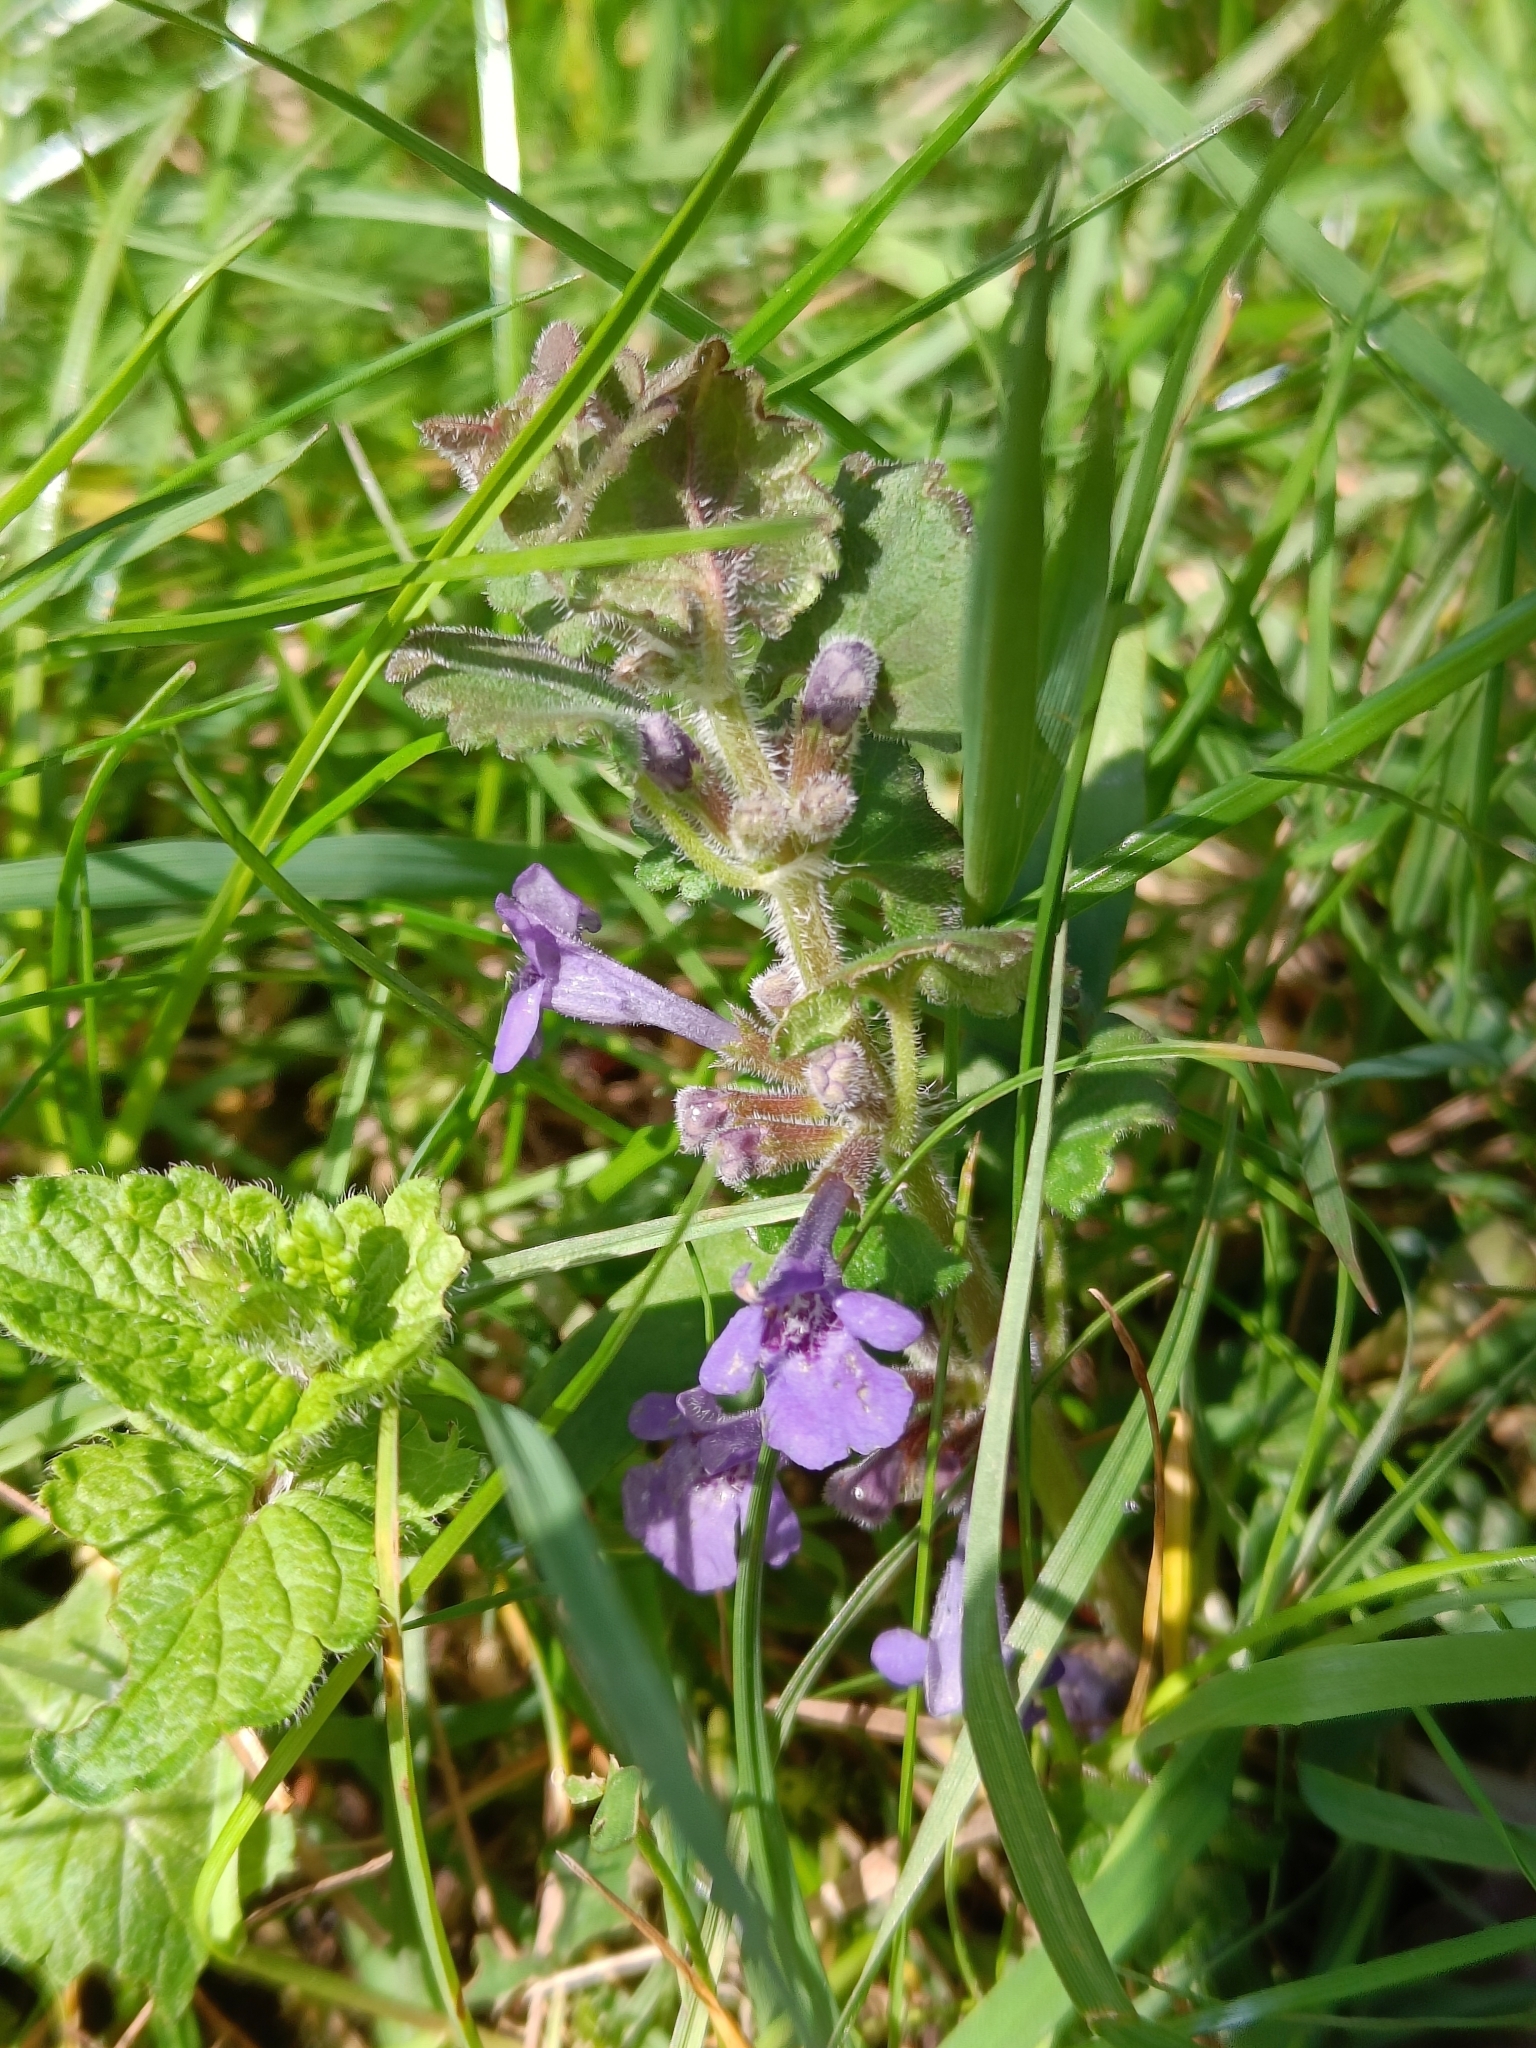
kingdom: Plantae
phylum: Tracheophyta
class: Magnoliopsida
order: Lamiales
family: Lamiaceae
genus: Glechoma
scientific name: Glechoma hederacea
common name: Ground ivy
